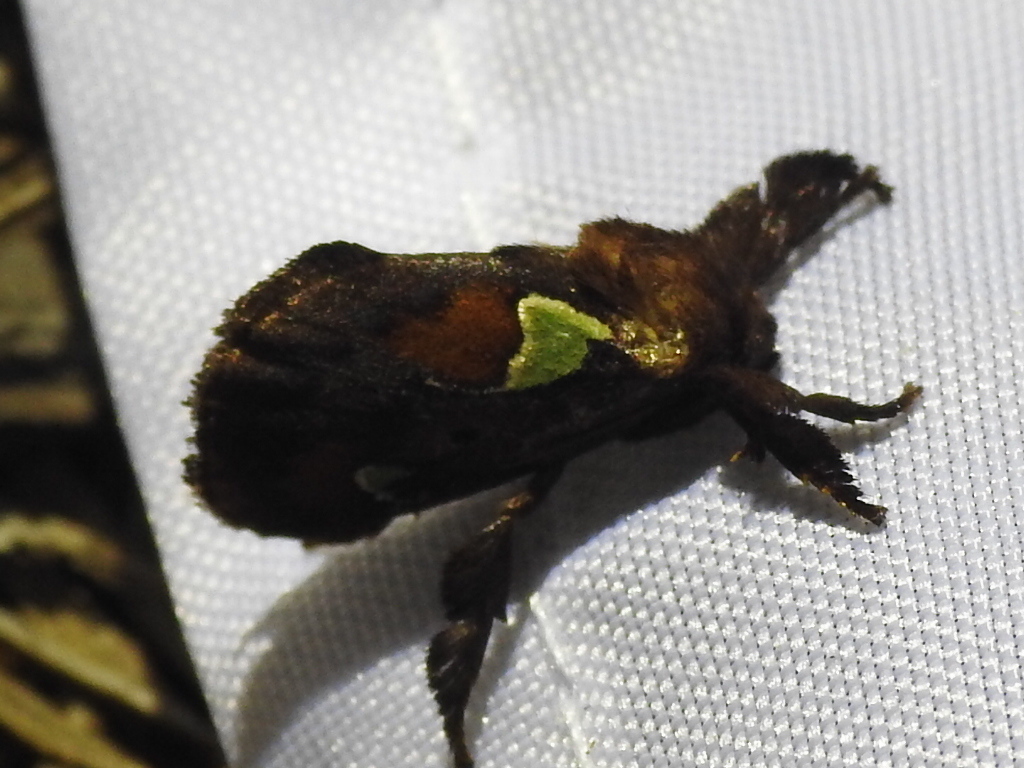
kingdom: Animalia
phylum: Arthropoda
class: Insecta
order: Lepidoptera
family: Limacodidae
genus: Euclea
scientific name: Euclea delphinii
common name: Spiny oak-slug moth
